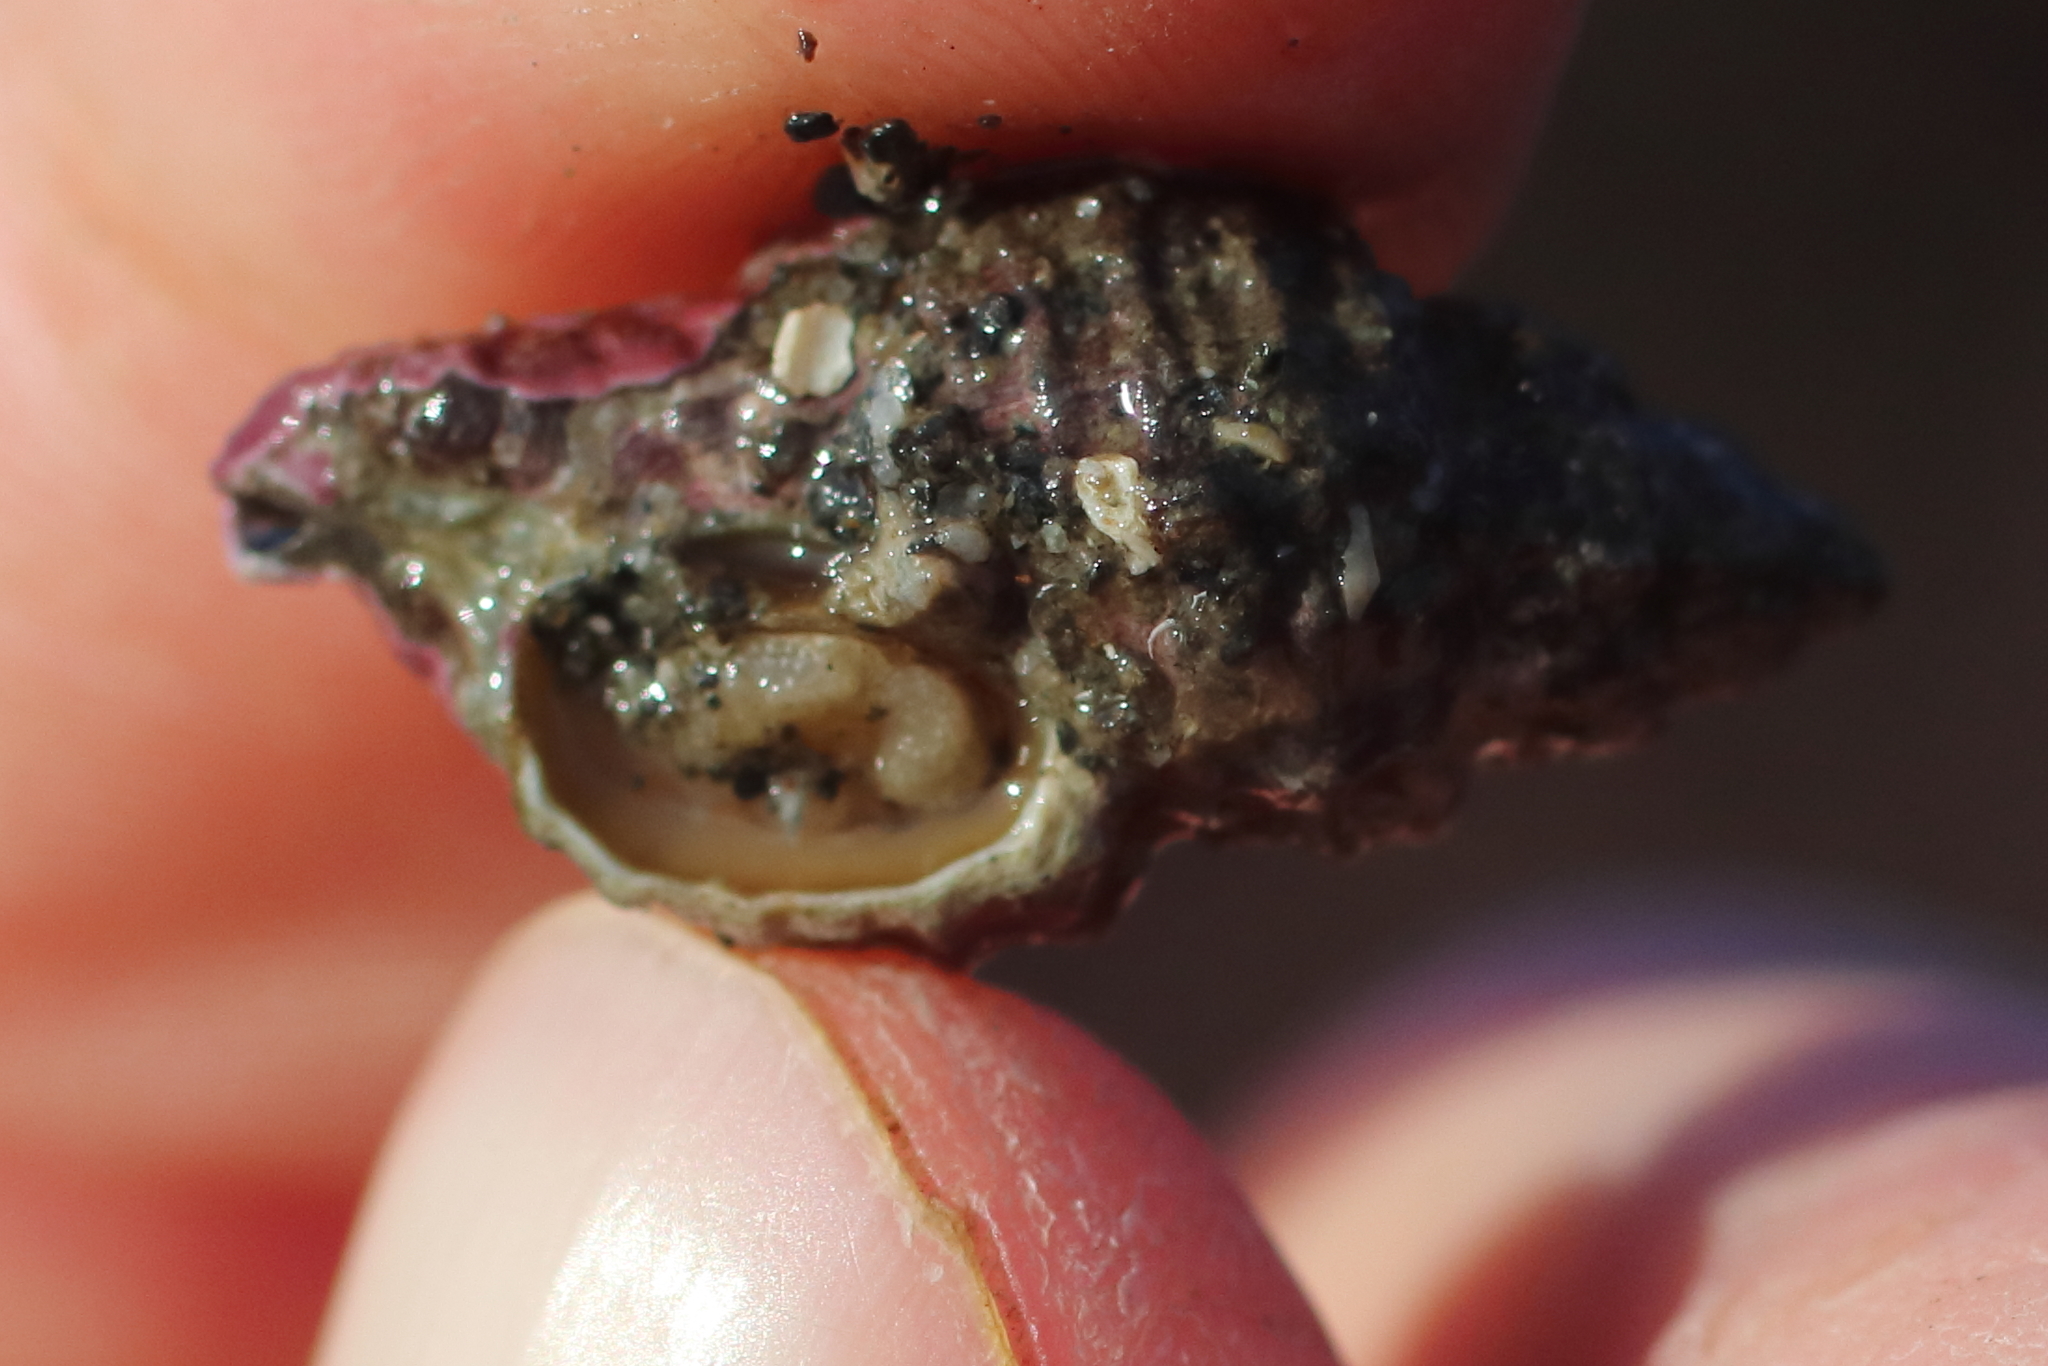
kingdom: Animalia
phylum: Mollusca
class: Gastropoda
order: Neogastropoda
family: Muricidae
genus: Paciocinebrina
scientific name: Paciocinebrina interfossa
